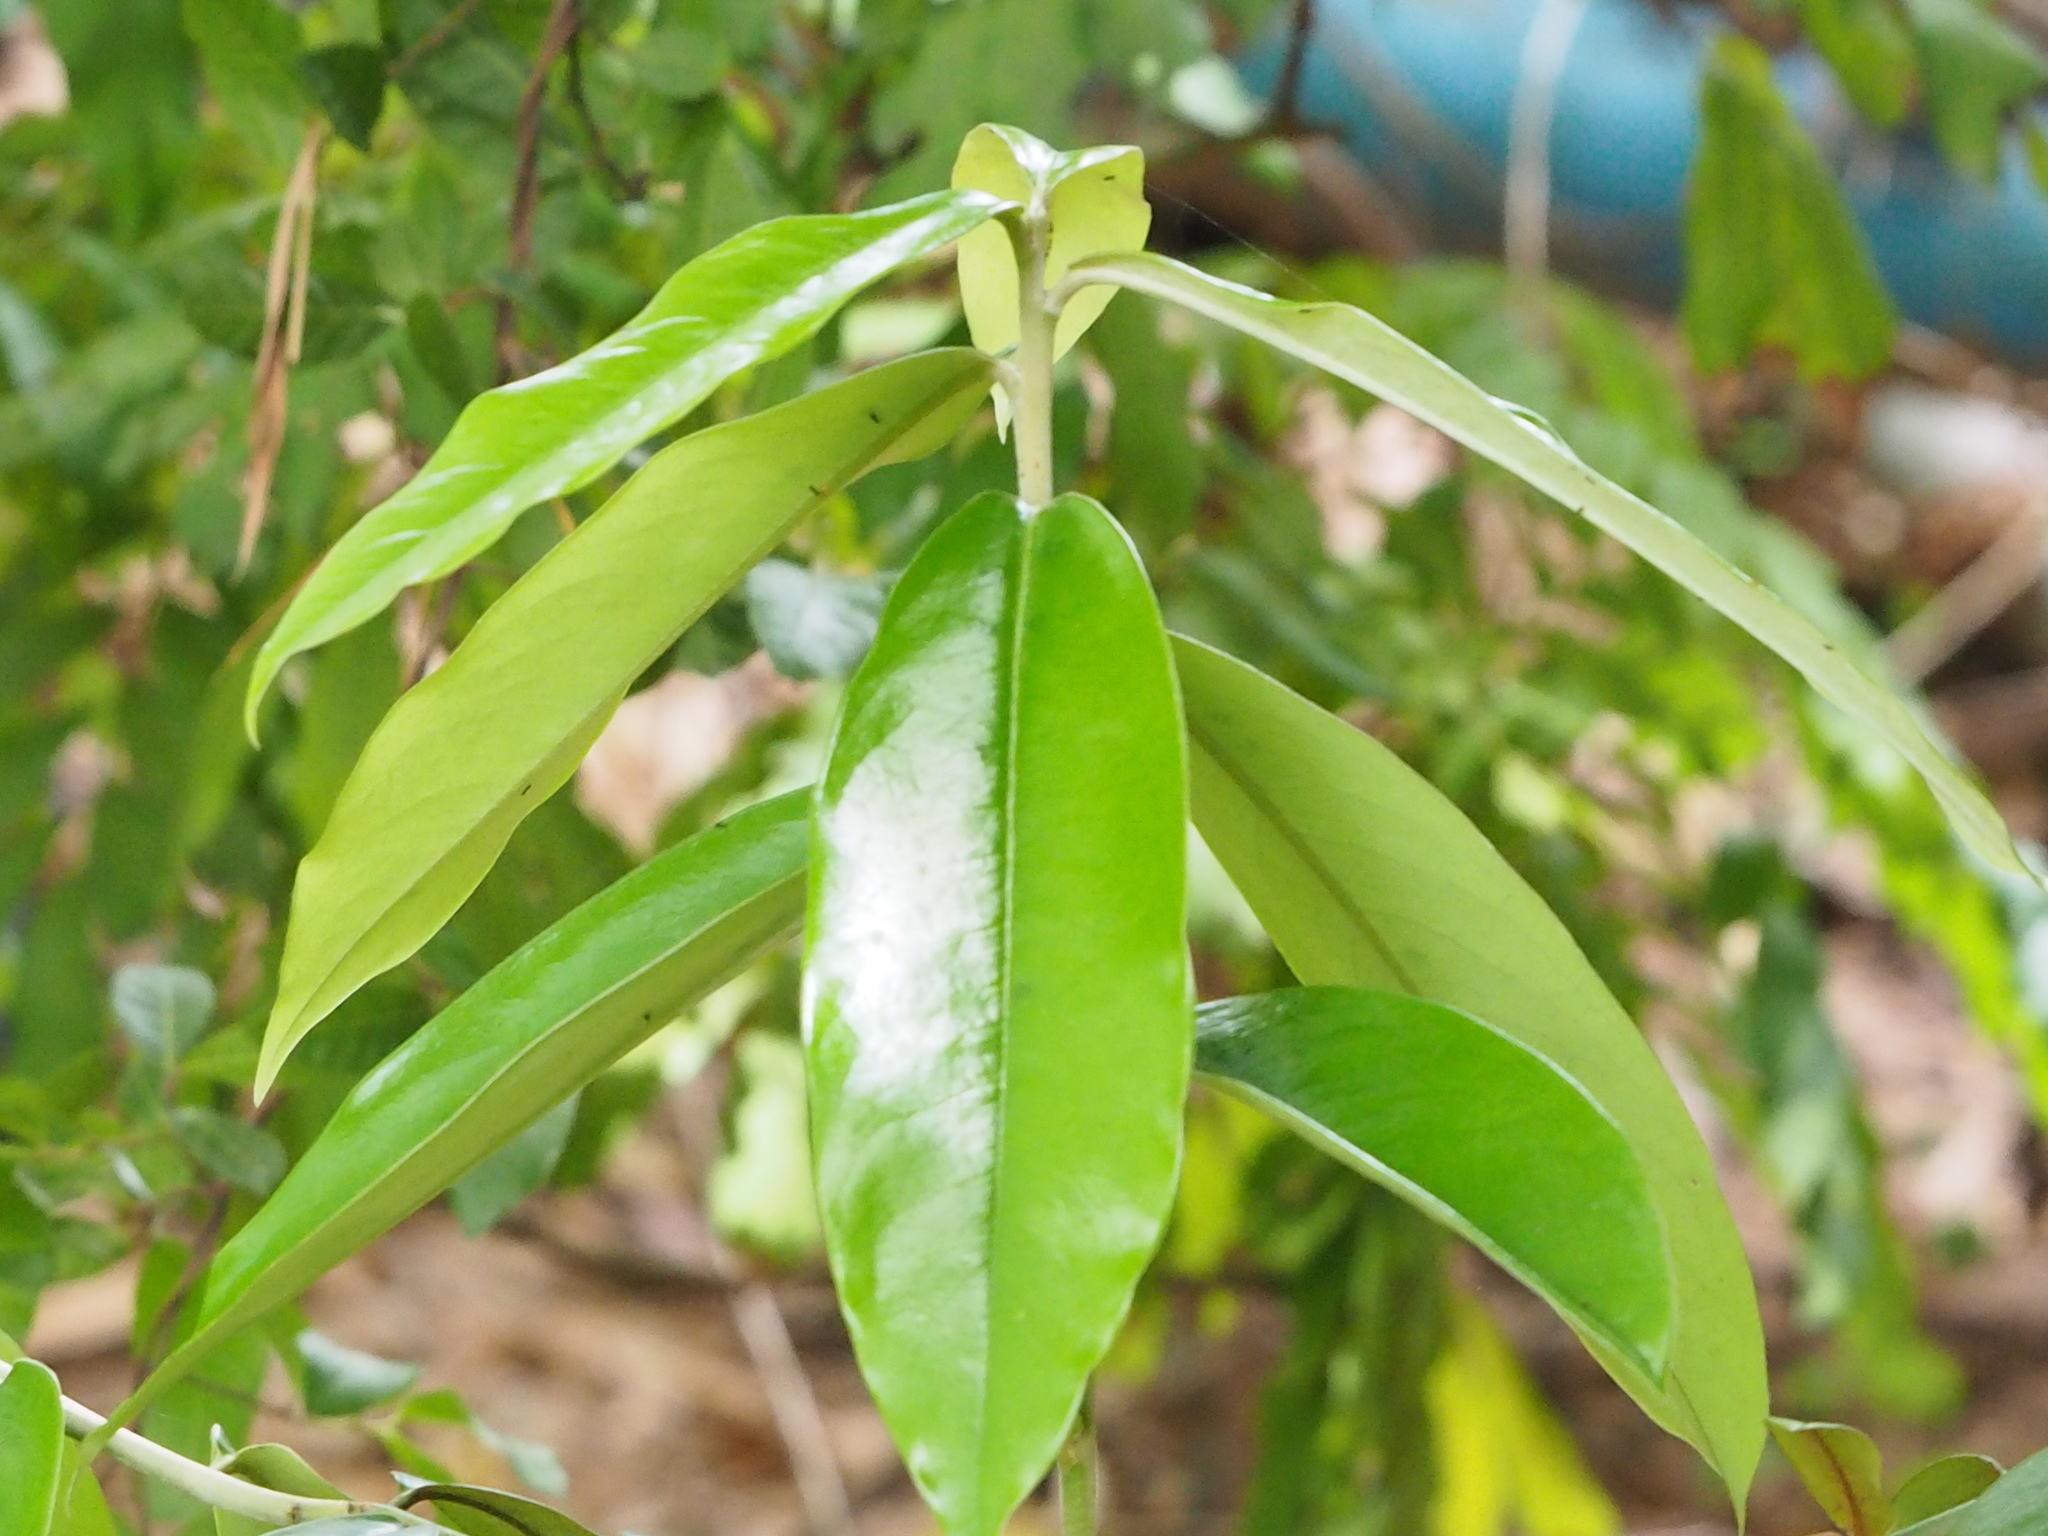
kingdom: Plantae
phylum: Tracheophyta
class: Magnoliopsida
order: Ericales
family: Ebenaceae
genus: Diospyros
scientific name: Diospyros blancoi
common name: Mabola-tree
